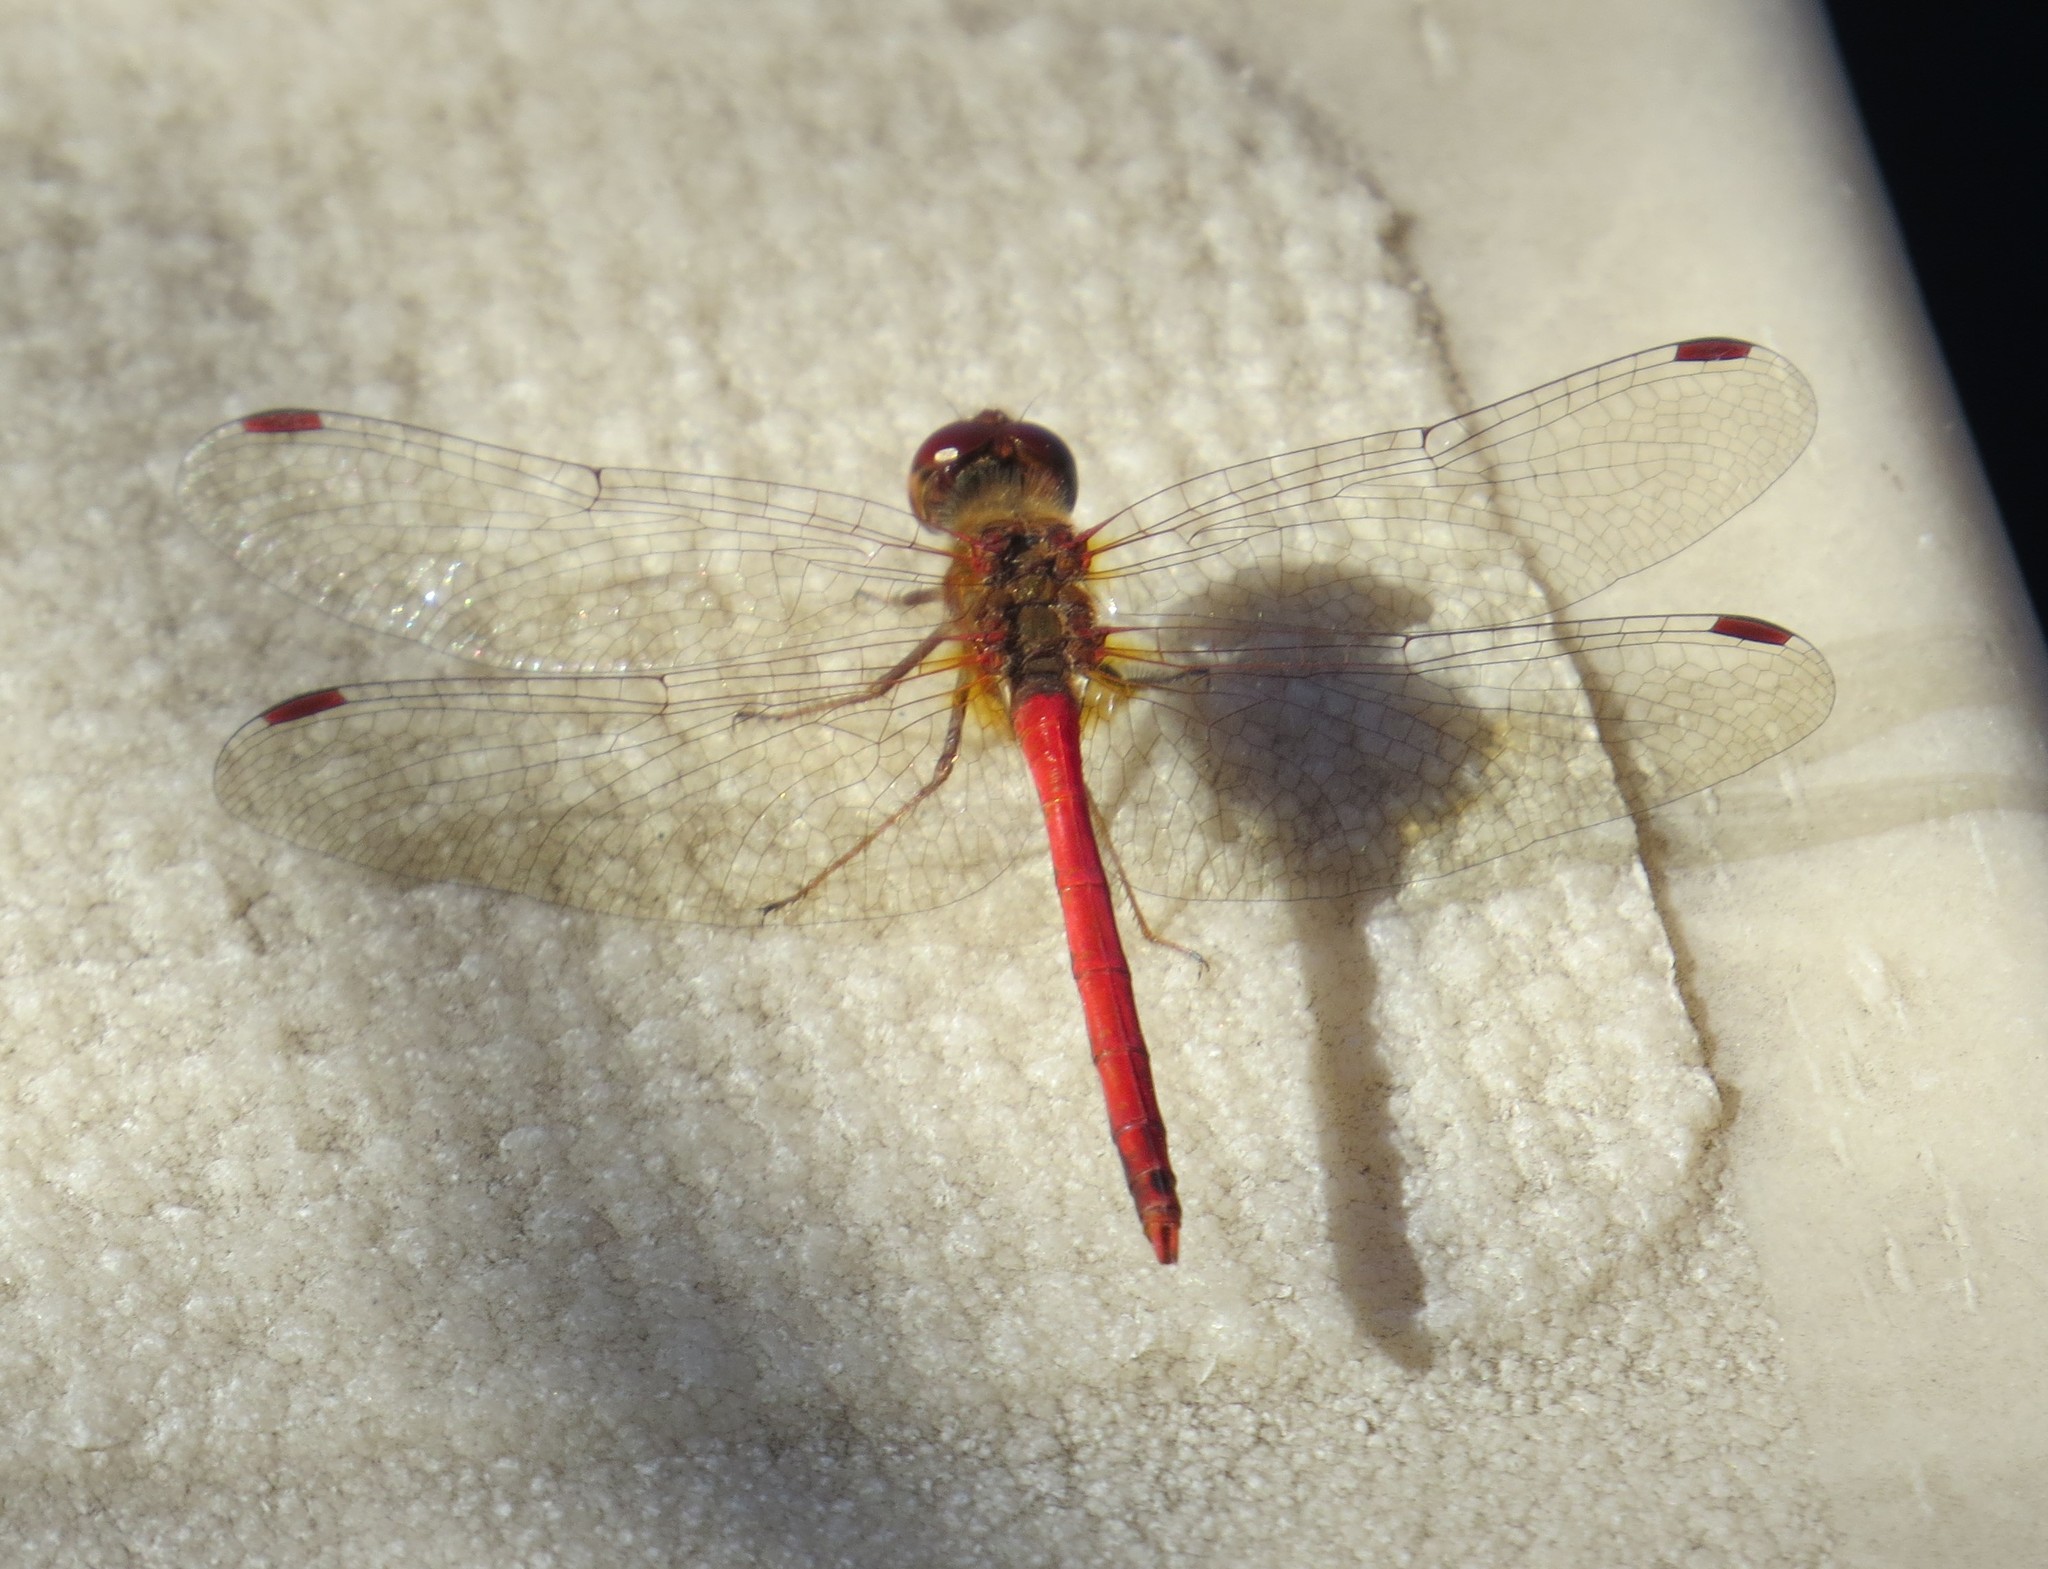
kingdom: Animalia
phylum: Arthropoda
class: Insecta
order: Odonata
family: Libellulidae
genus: Sympetrum
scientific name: Sympetrum vicinum
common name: Autumn meadowhawk
